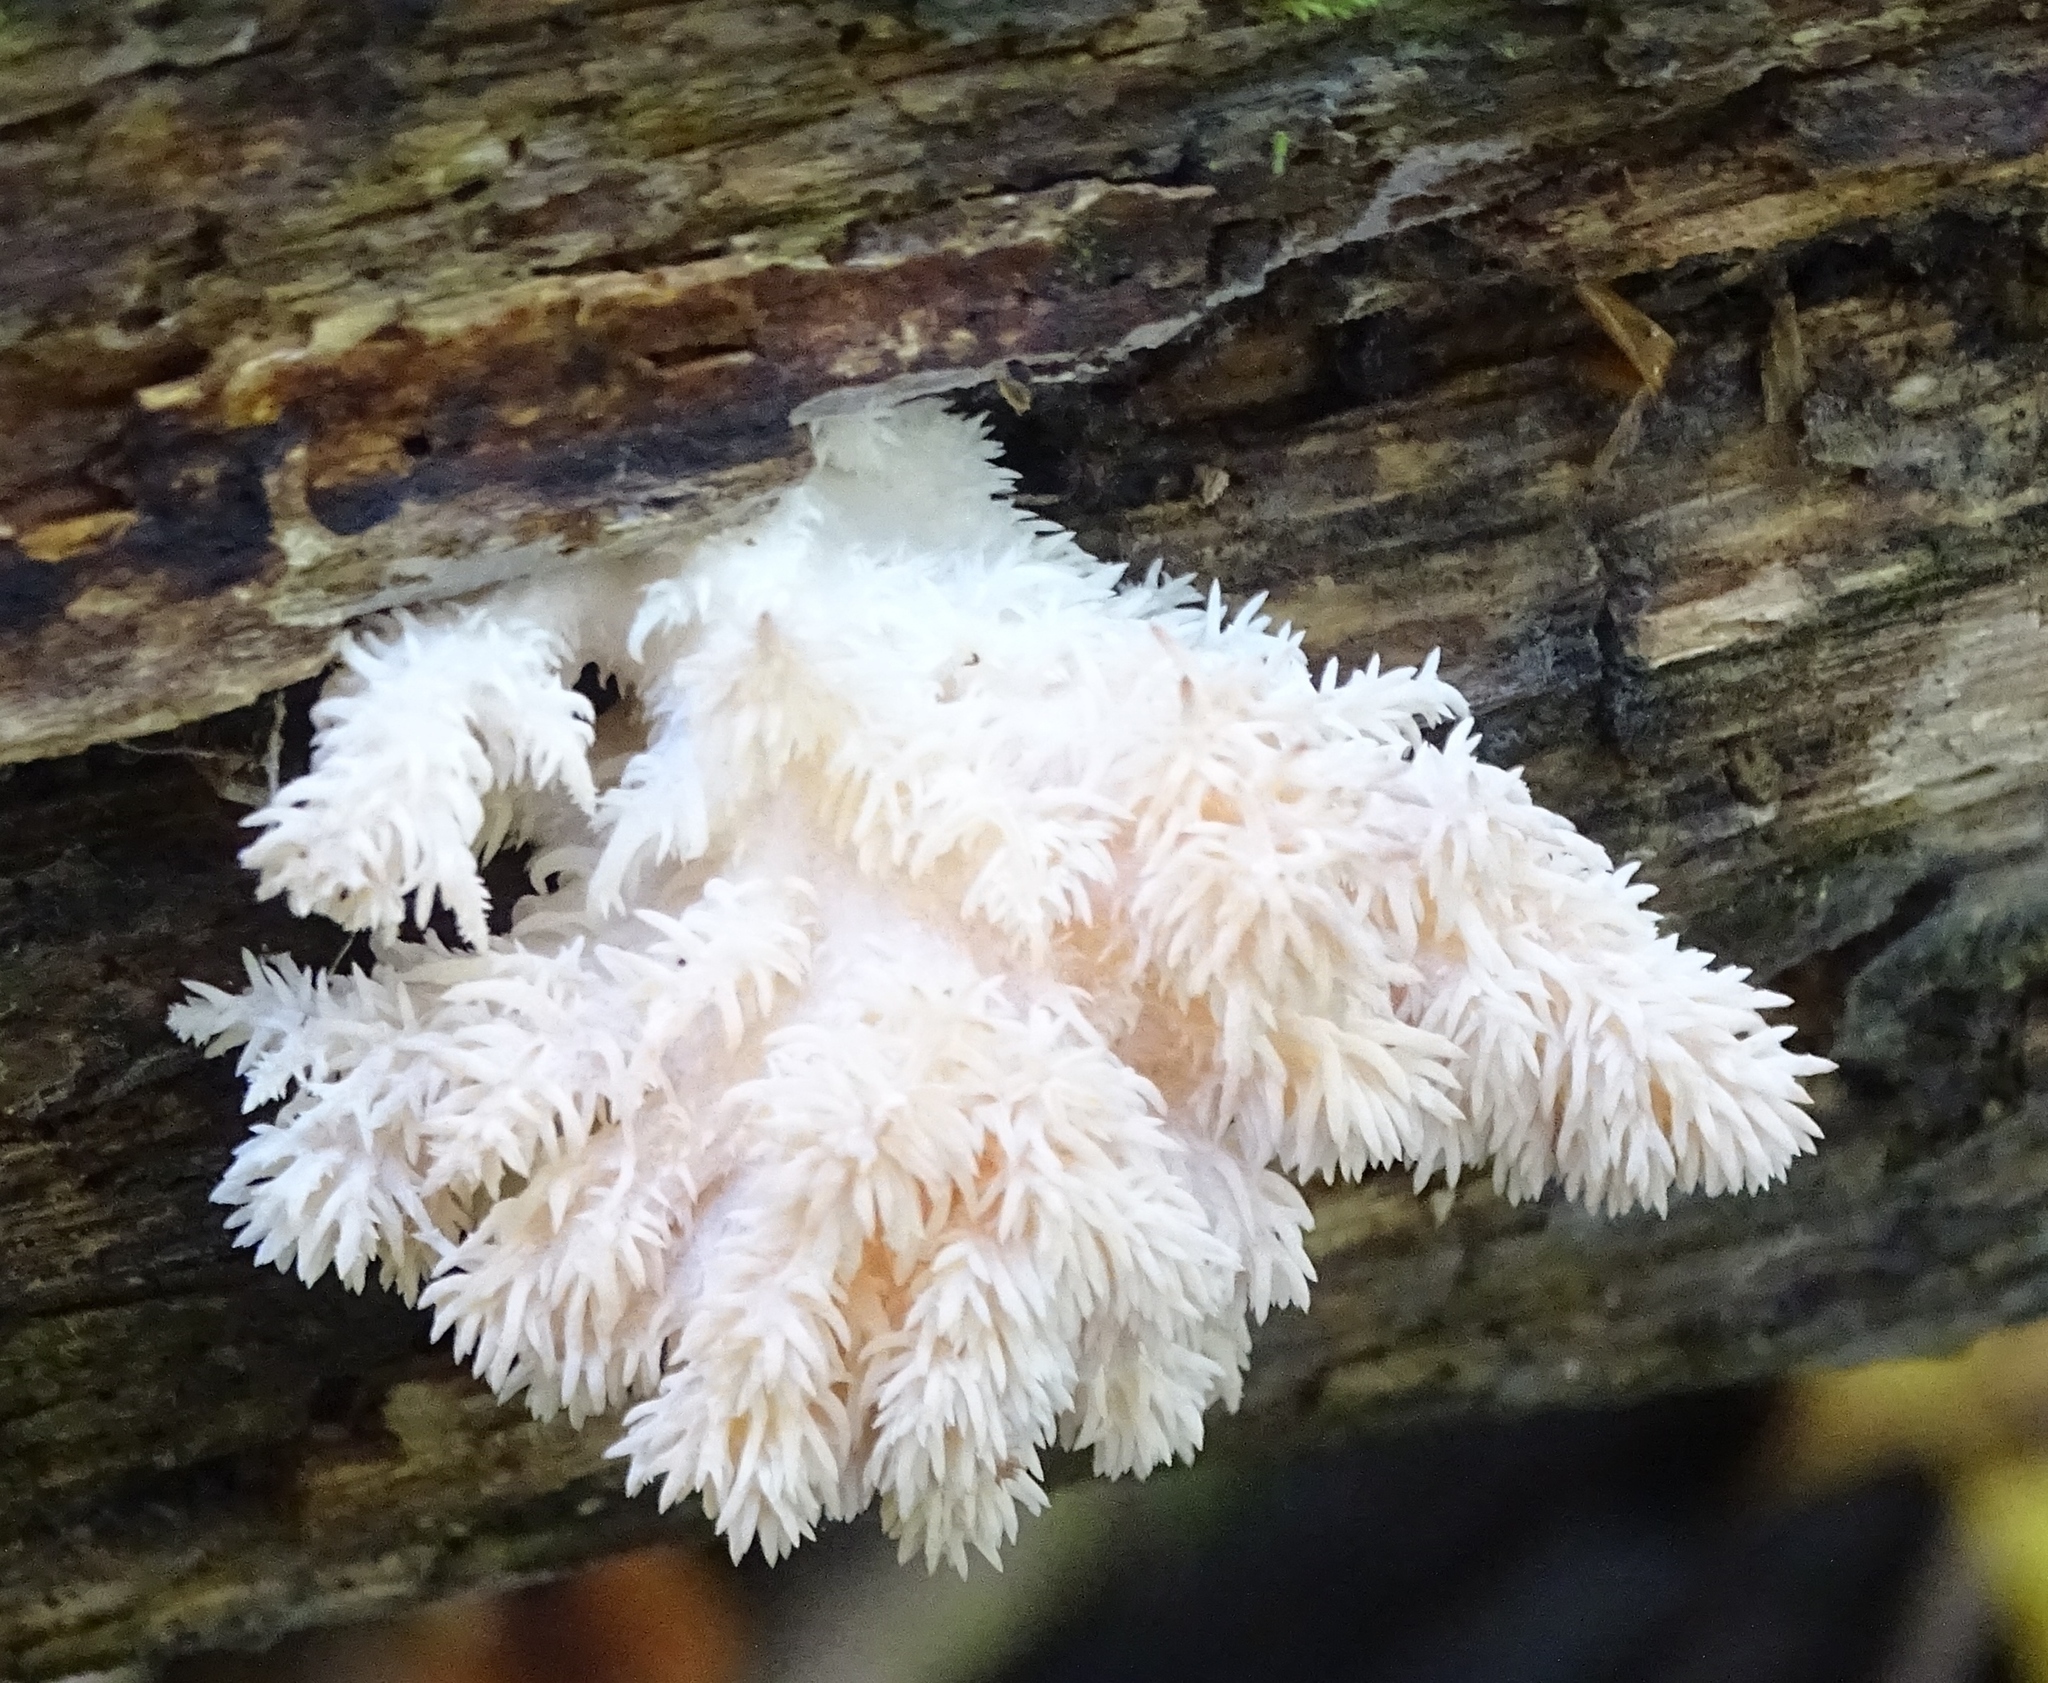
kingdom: Fungi
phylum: Basidiomycota
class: Agaricomycetes
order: Russulales
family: Hericiaceae
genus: Hericium
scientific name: Hericium coralloides
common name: Coral tooth
